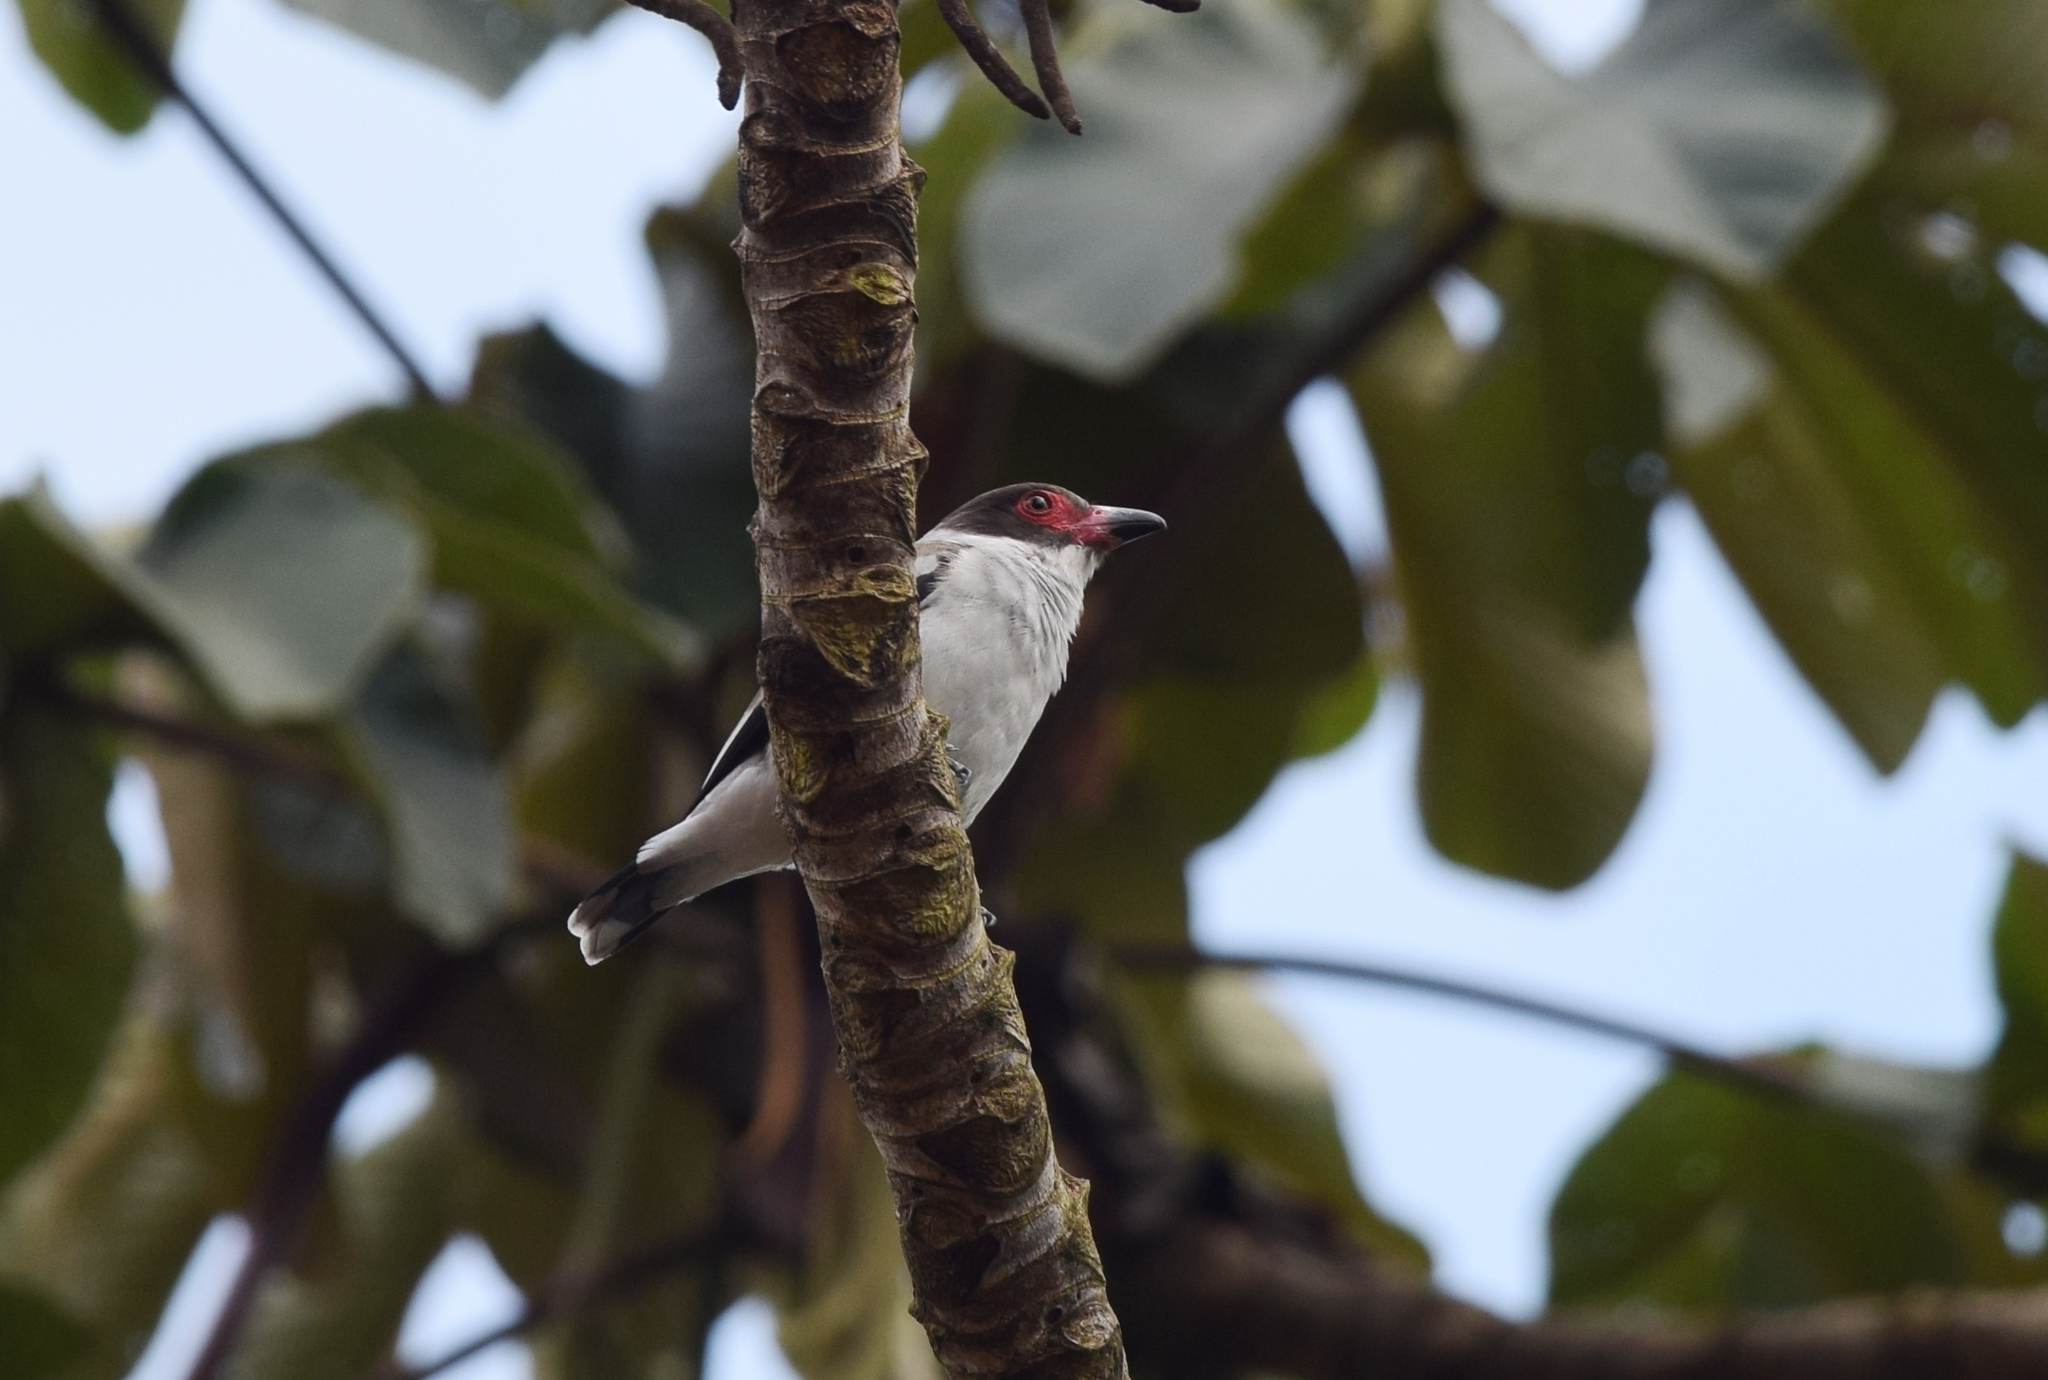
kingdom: Animalia
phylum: Chordata
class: Aves
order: Passeriformes
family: Cotingidae
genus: Tityra
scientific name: Tityra semifasciata
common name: Masked tityra
